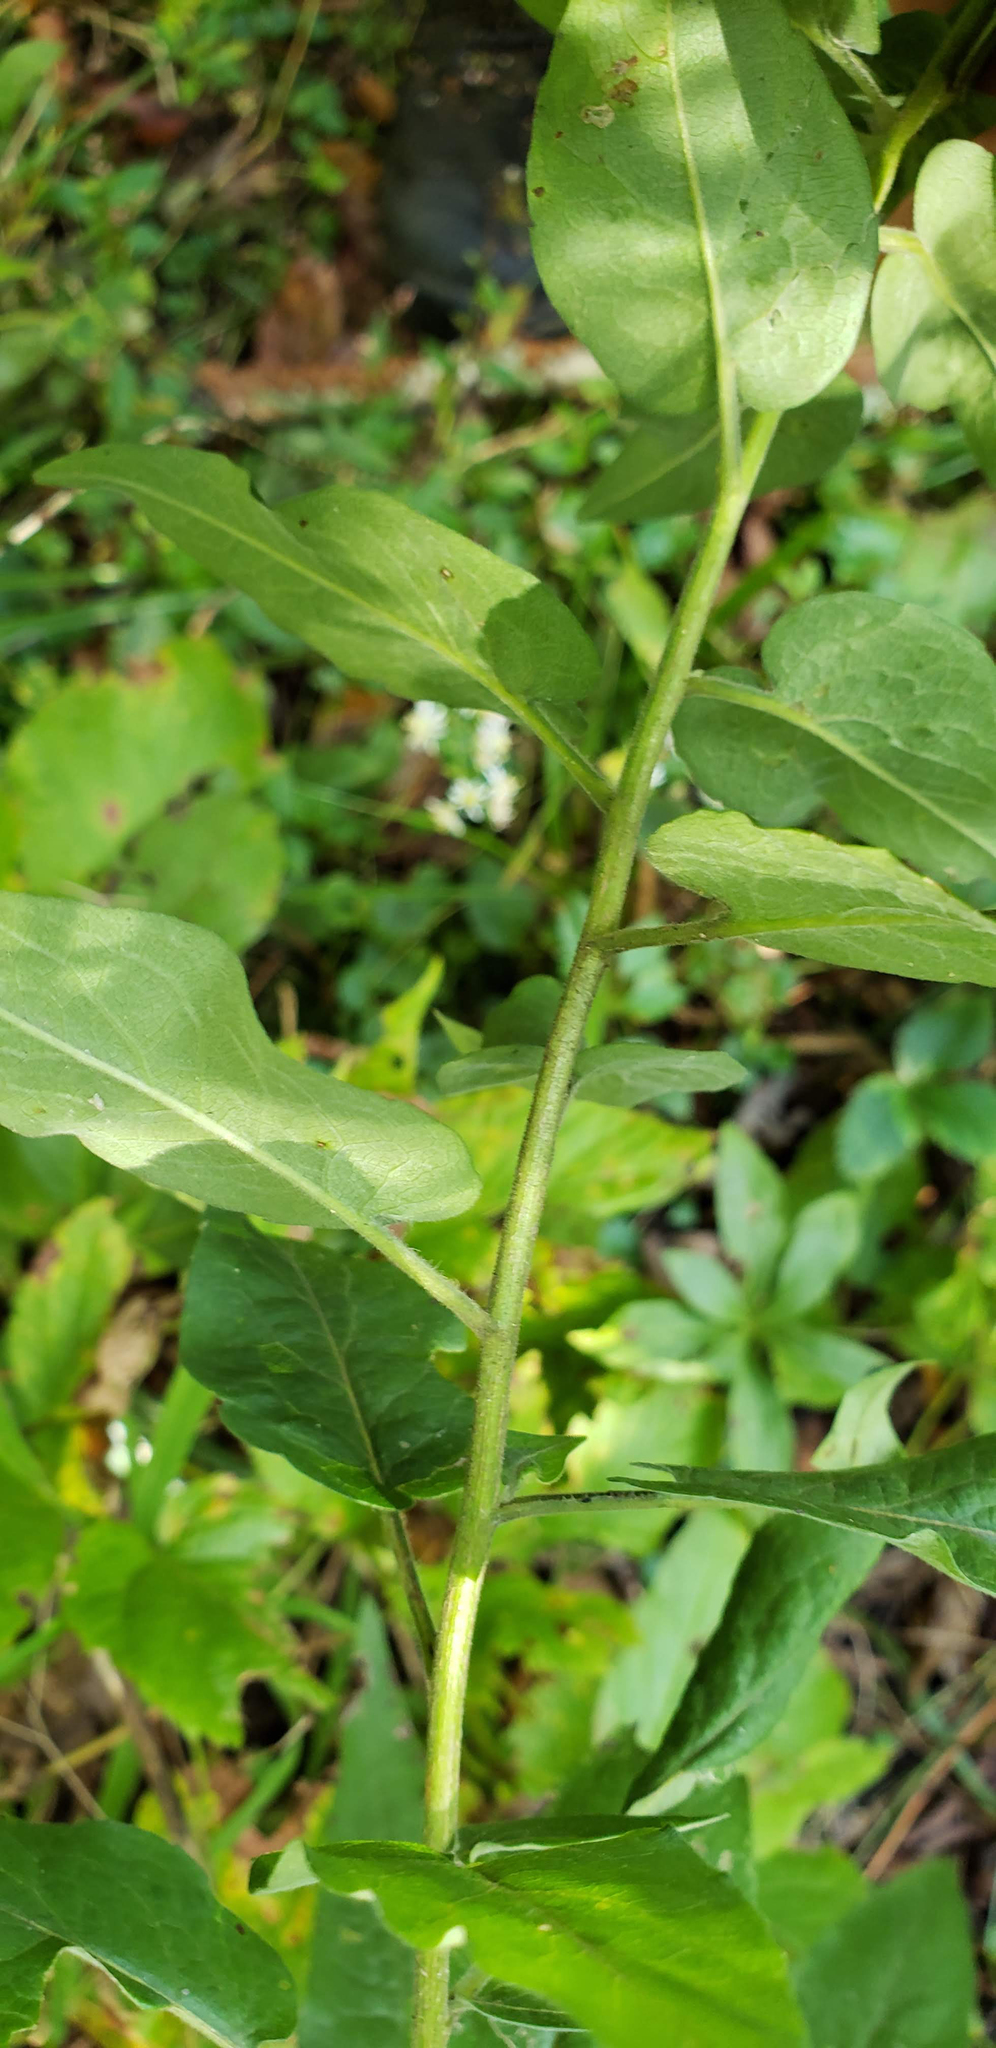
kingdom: Plantae
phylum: Tracheophyta
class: Magnoliopsida
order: Asterales
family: Asteraceae
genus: Symphyotrichum
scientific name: Symphyotrichum shortii
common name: Short's aster
